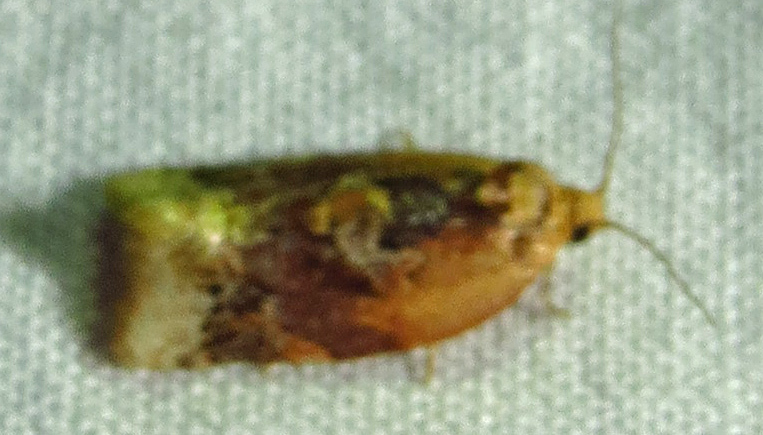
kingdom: Animalia
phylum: Arthropoda
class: Insecta
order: Lepidoptera
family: Tortricidae
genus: Argyrotaenia
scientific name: Argyrotaenia velutinana
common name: Red-banded leafroller moth
